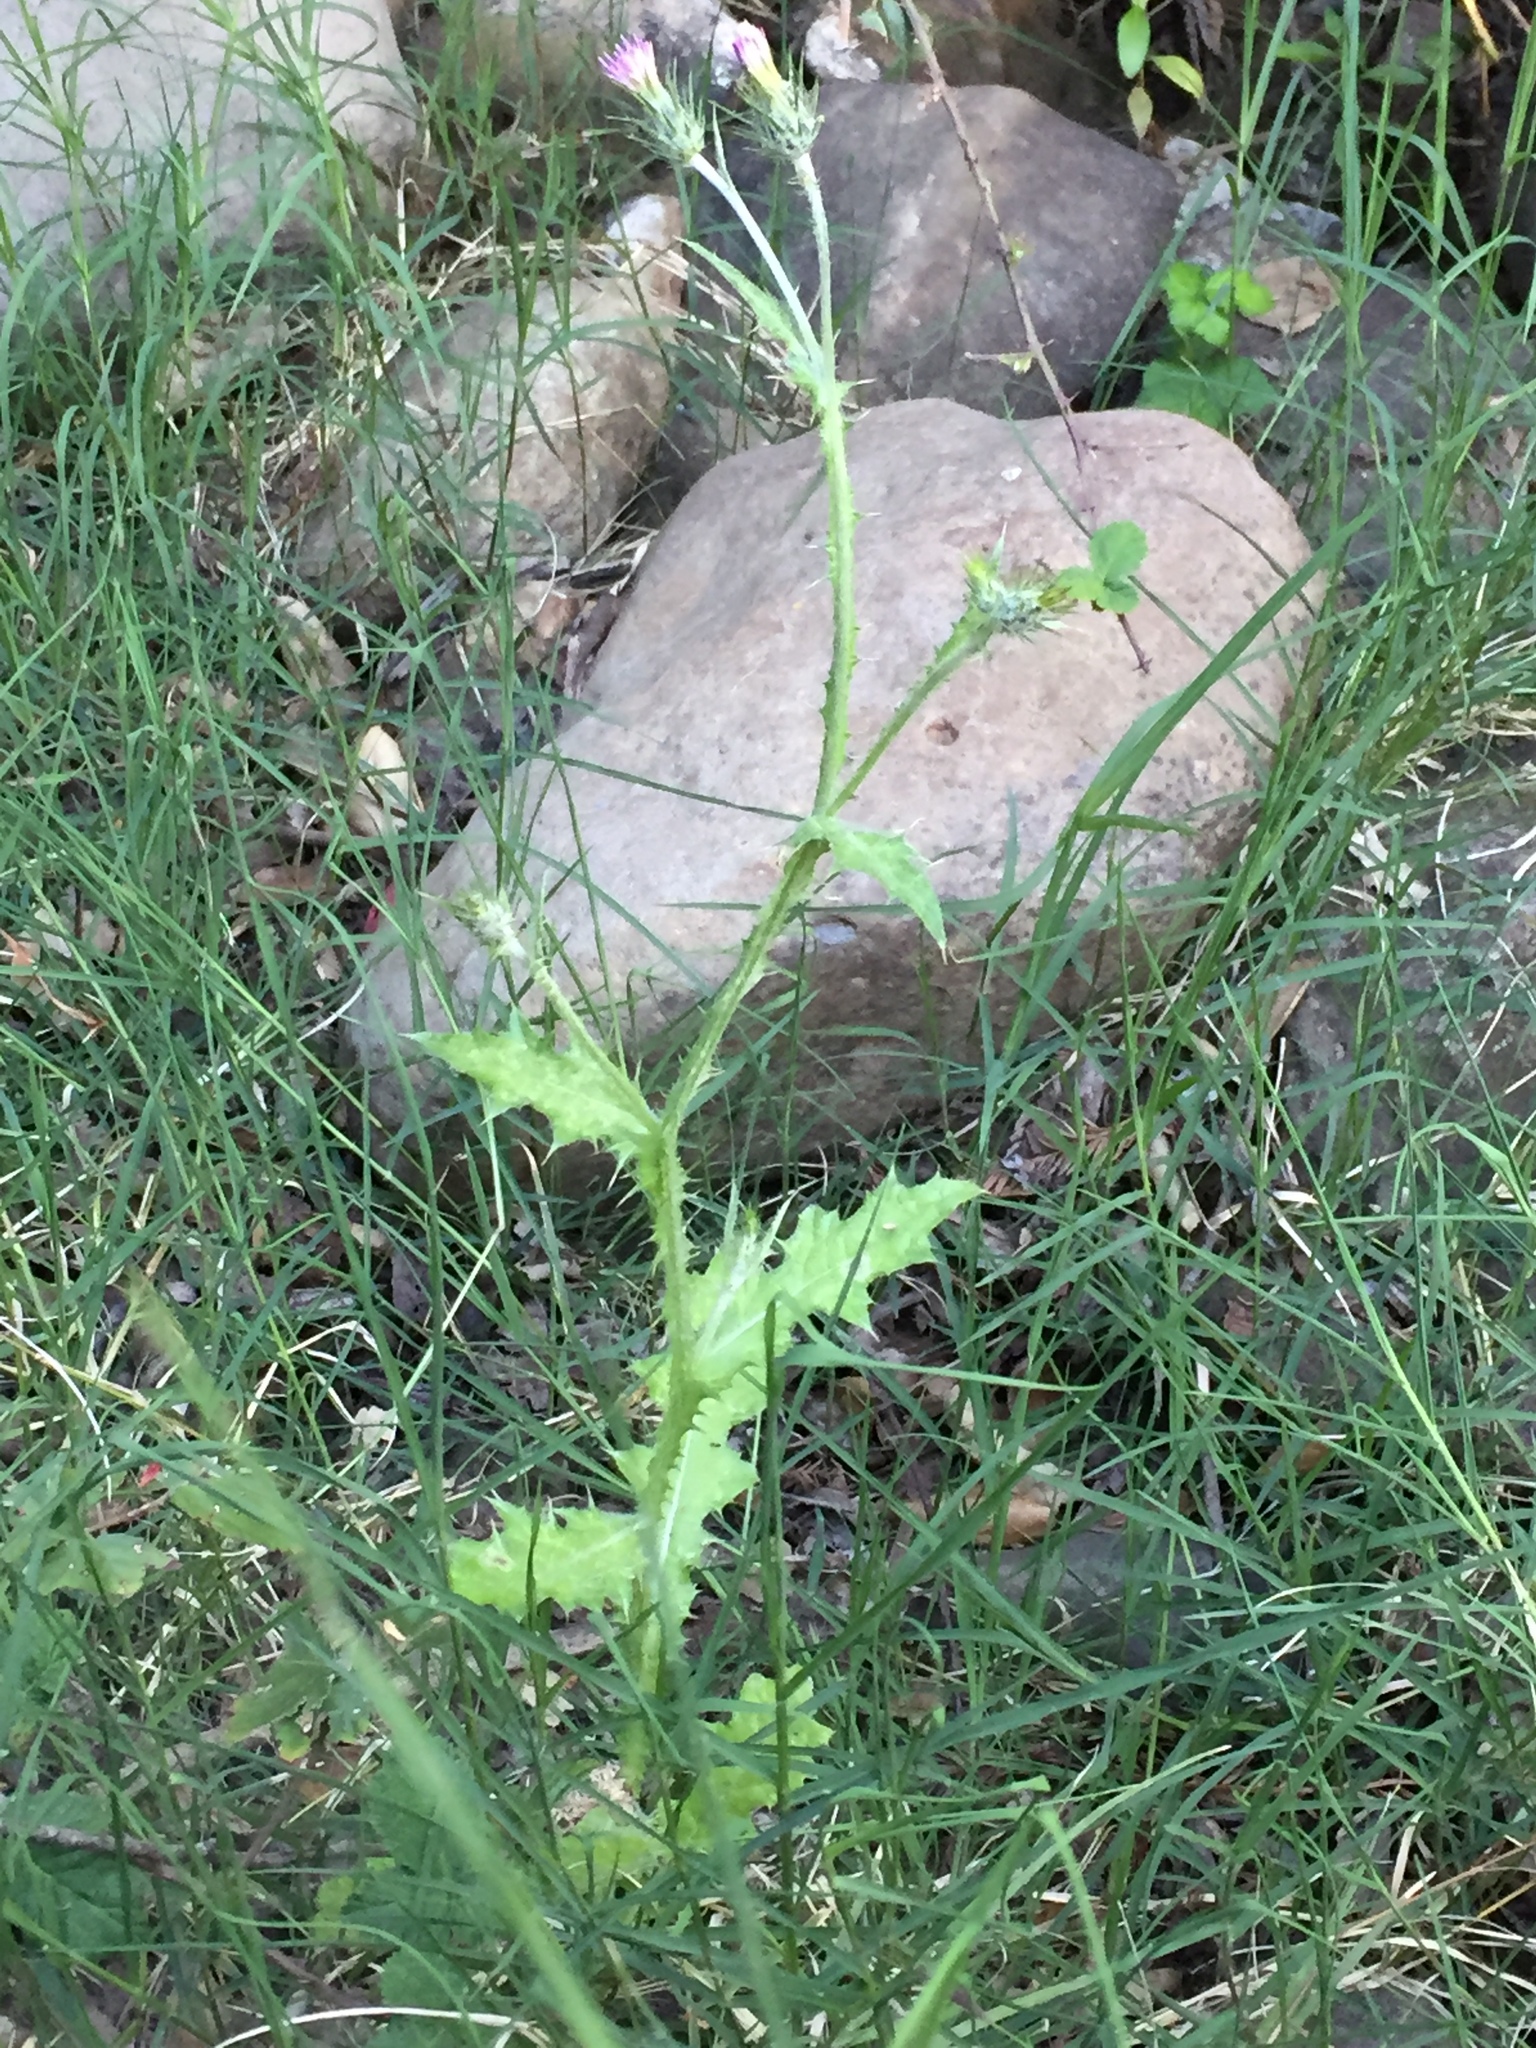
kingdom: Plantae
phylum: Tracheophyta
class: Magnoliopsida
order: Asterales
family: Asteraceae
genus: Carduus
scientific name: Carduus pycnocephalus
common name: Plymouth thistle
